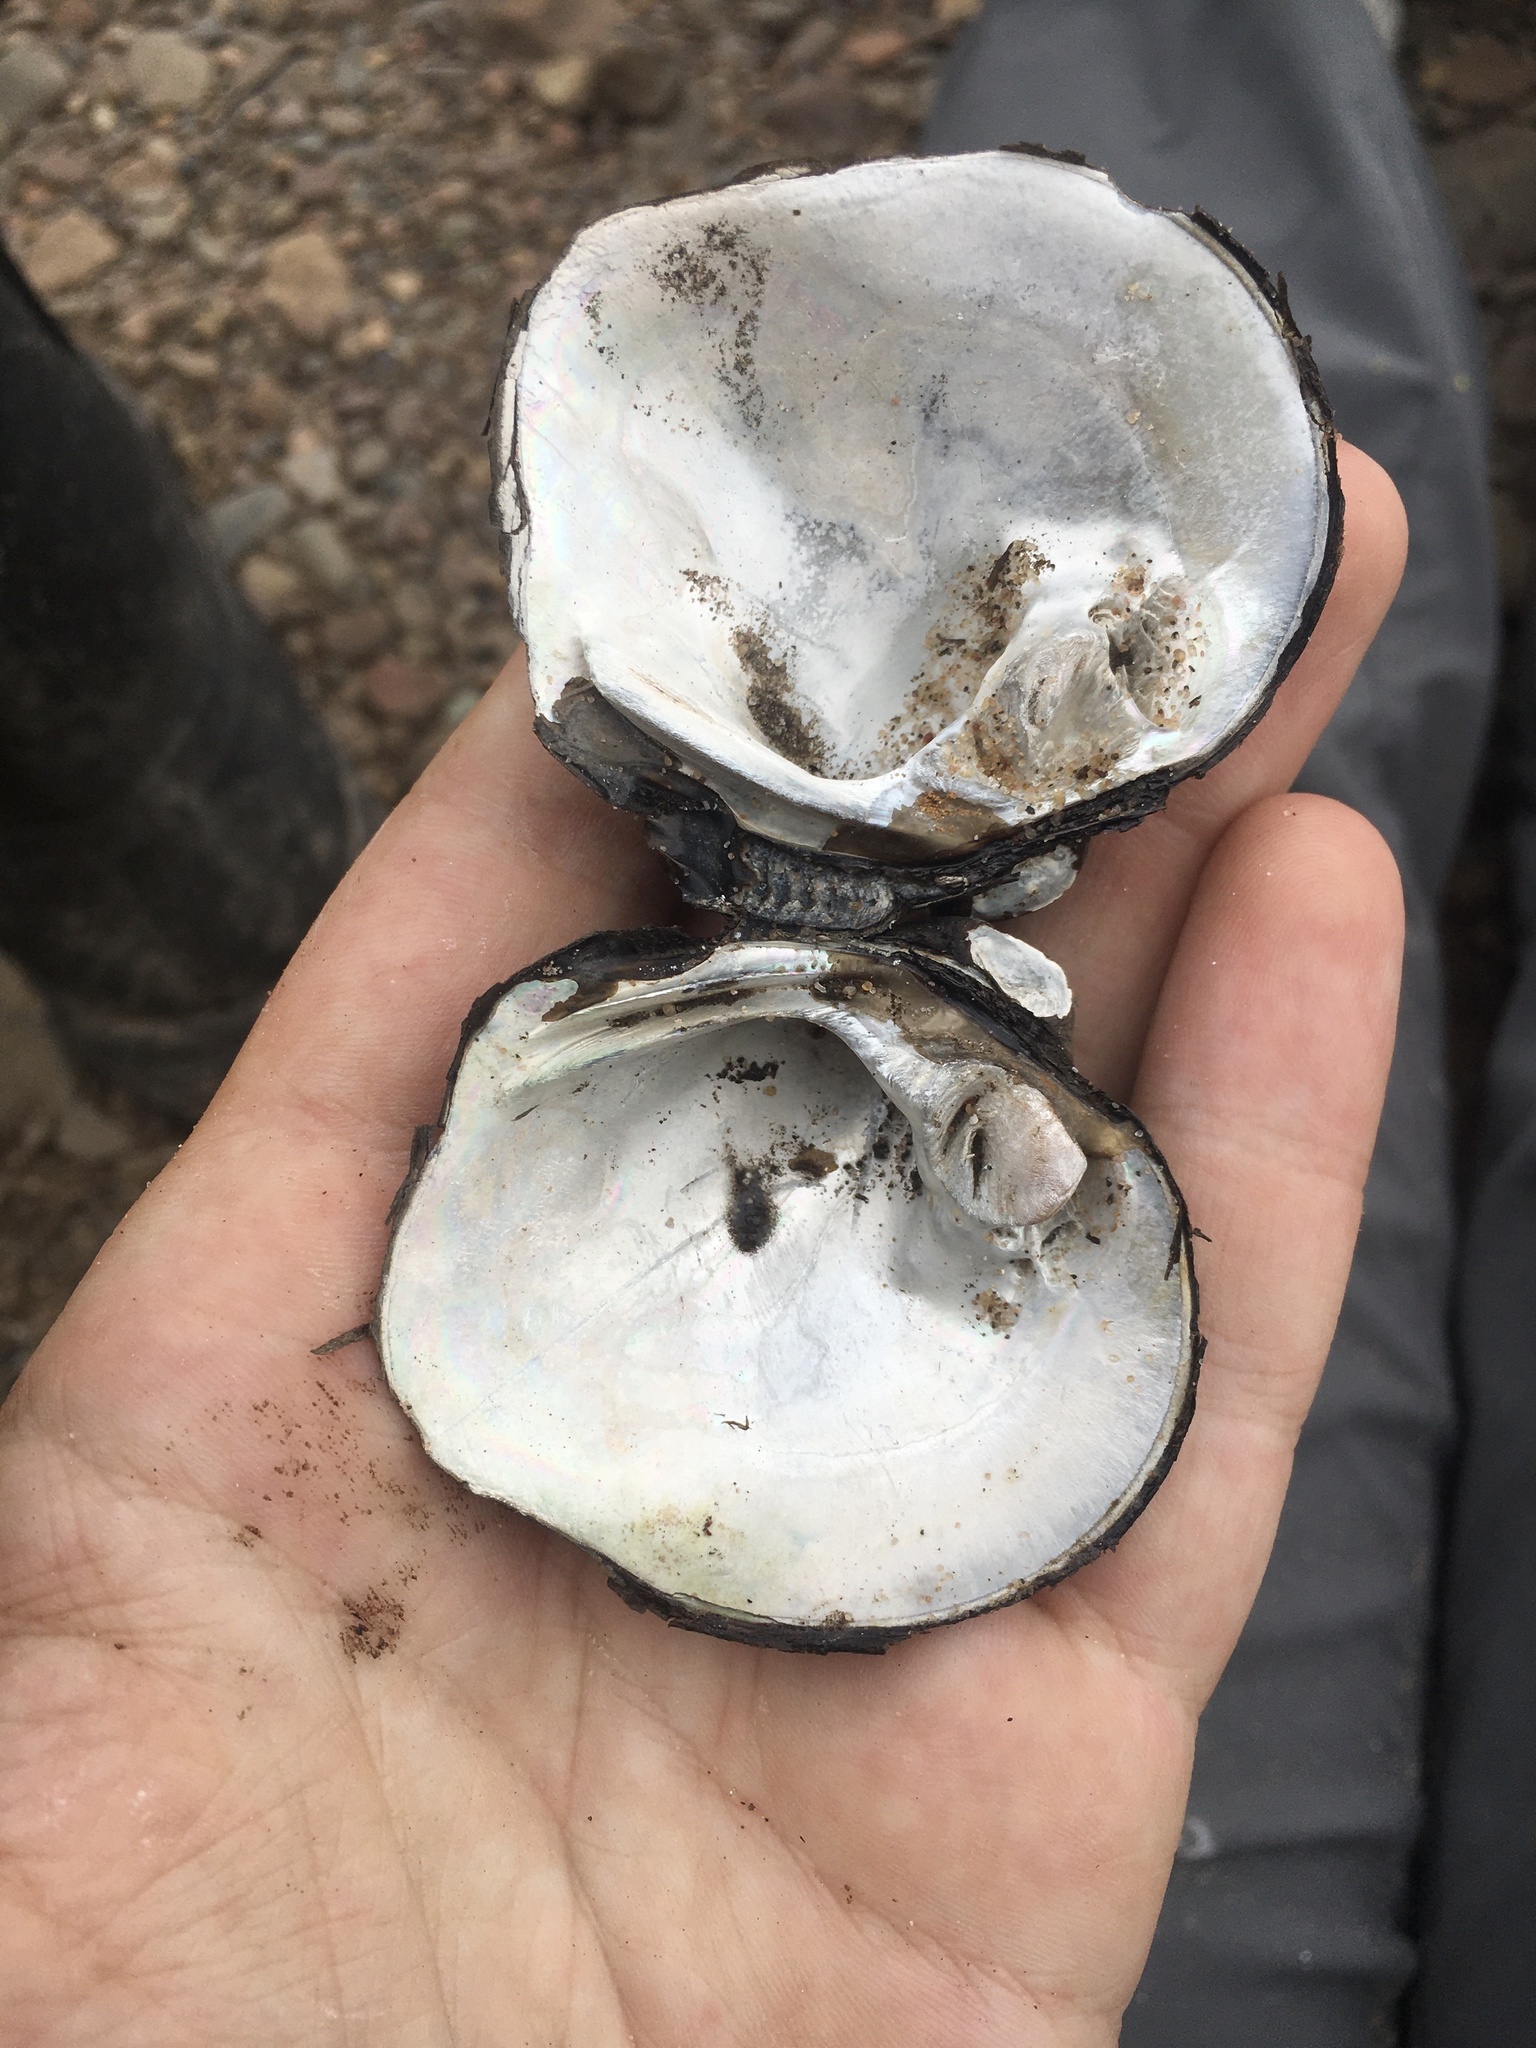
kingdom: Animalia
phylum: Mollusca
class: Bivalvia
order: Unionida
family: Unionidae
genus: Cyclonaias
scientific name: Cyclonaias pustulosa
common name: Pimpleback
